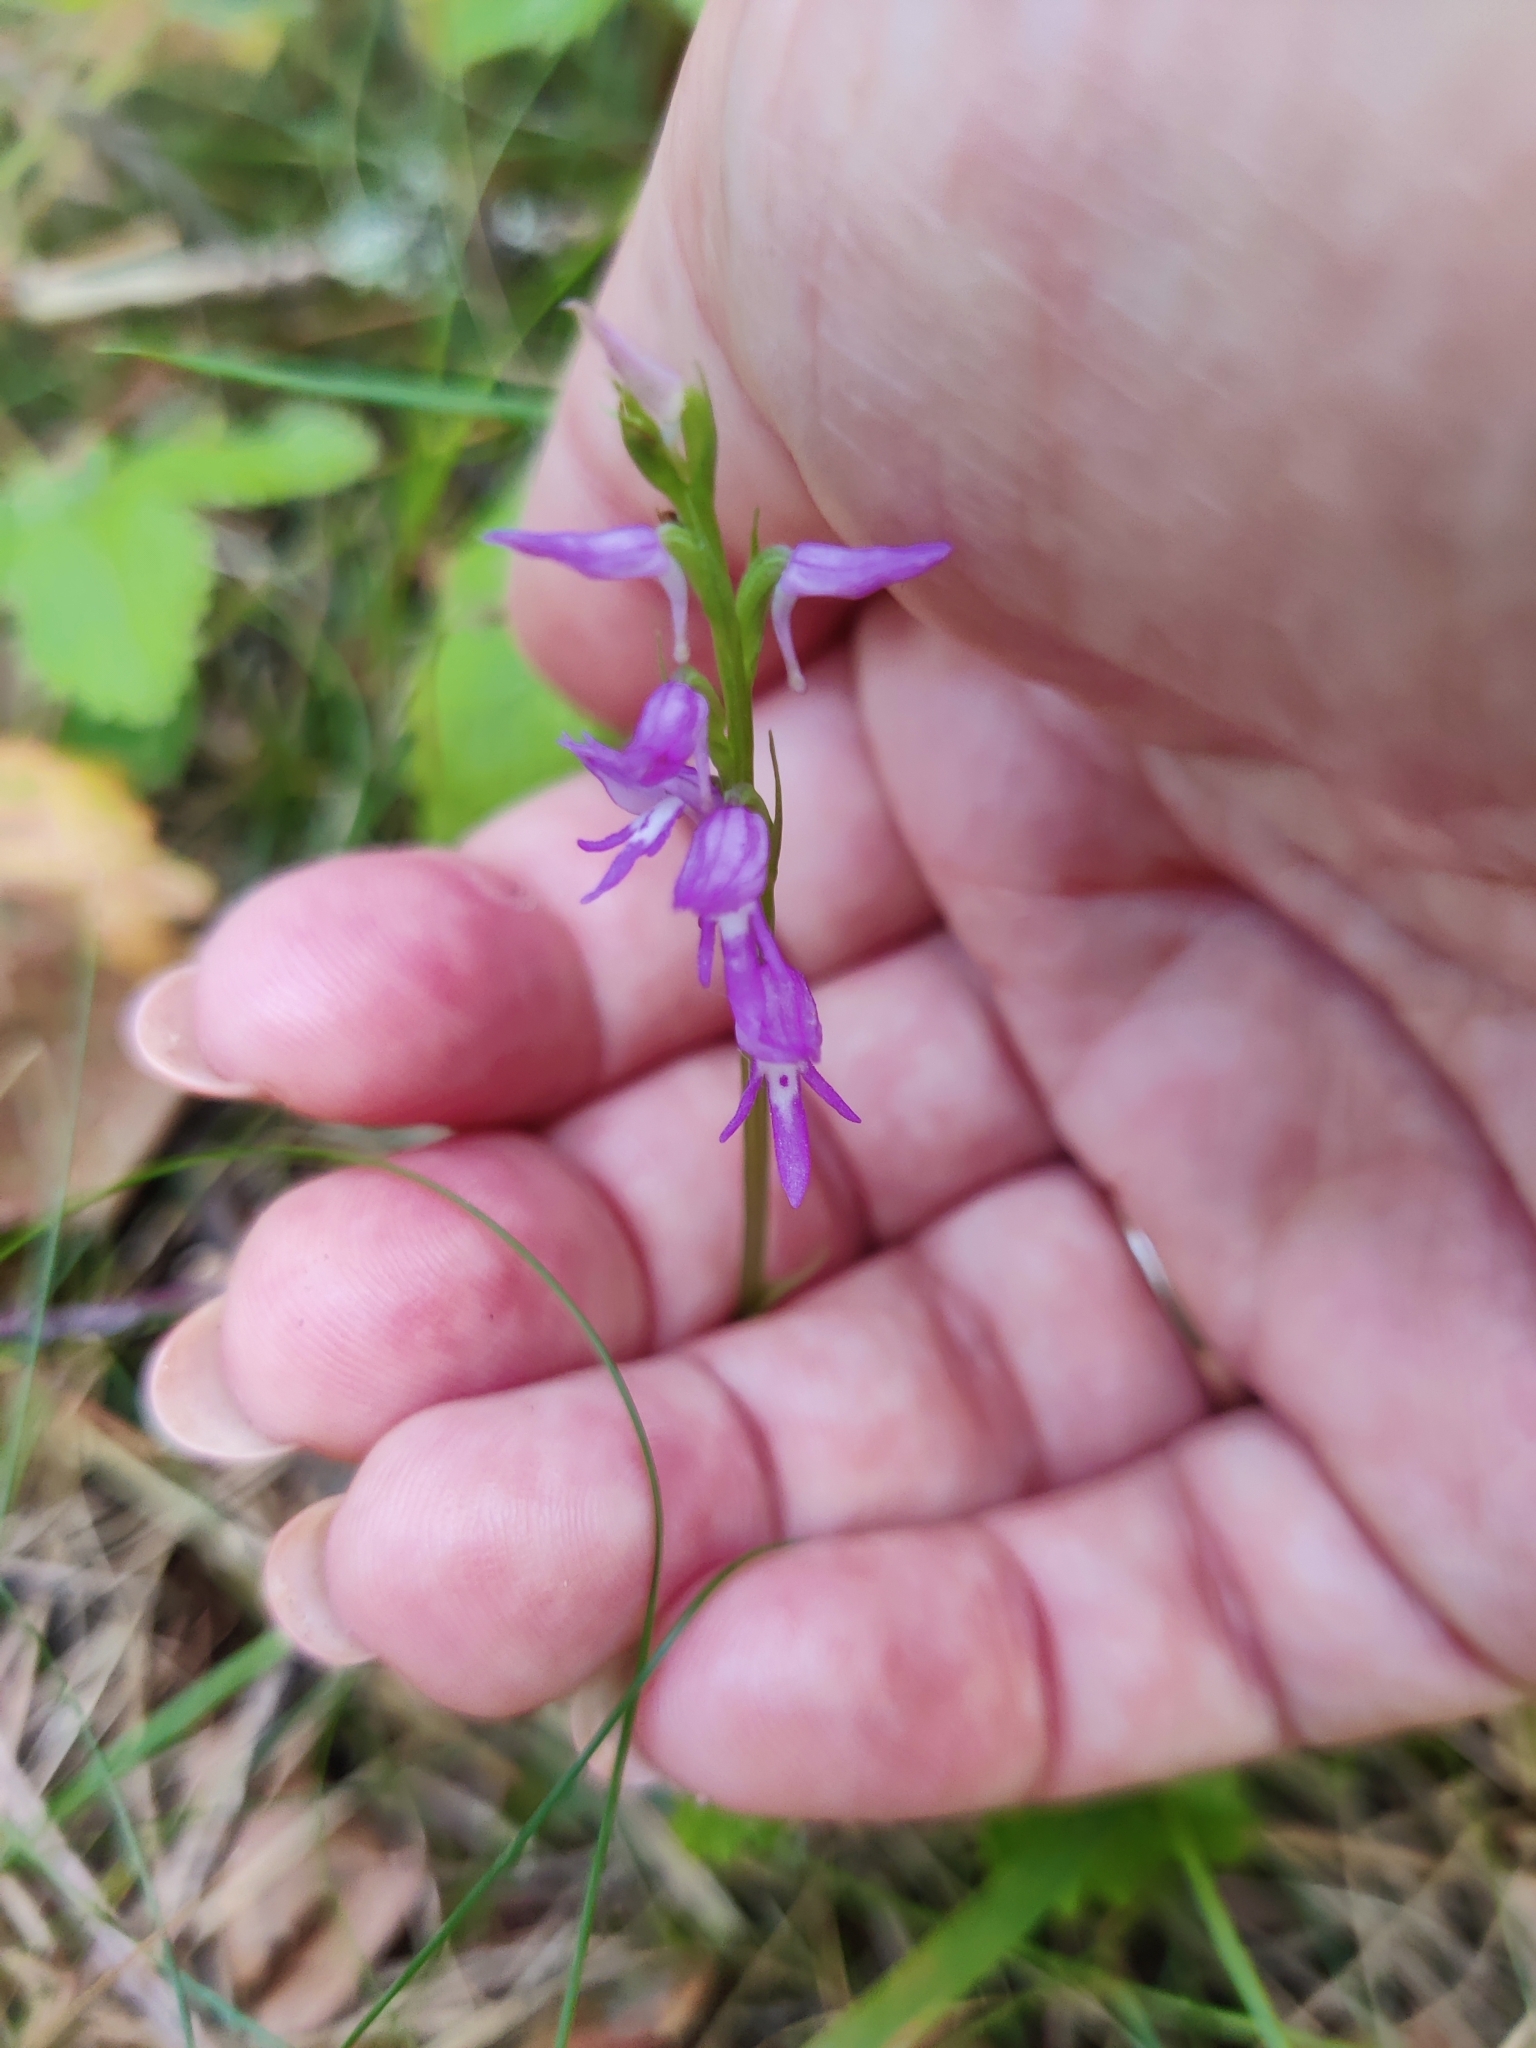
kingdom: Plantae
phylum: Tracheophyta
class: Liliopsida
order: Asparagales
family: Orchidaceae
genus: Hemipilia
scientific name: Hemipilia cucullata
